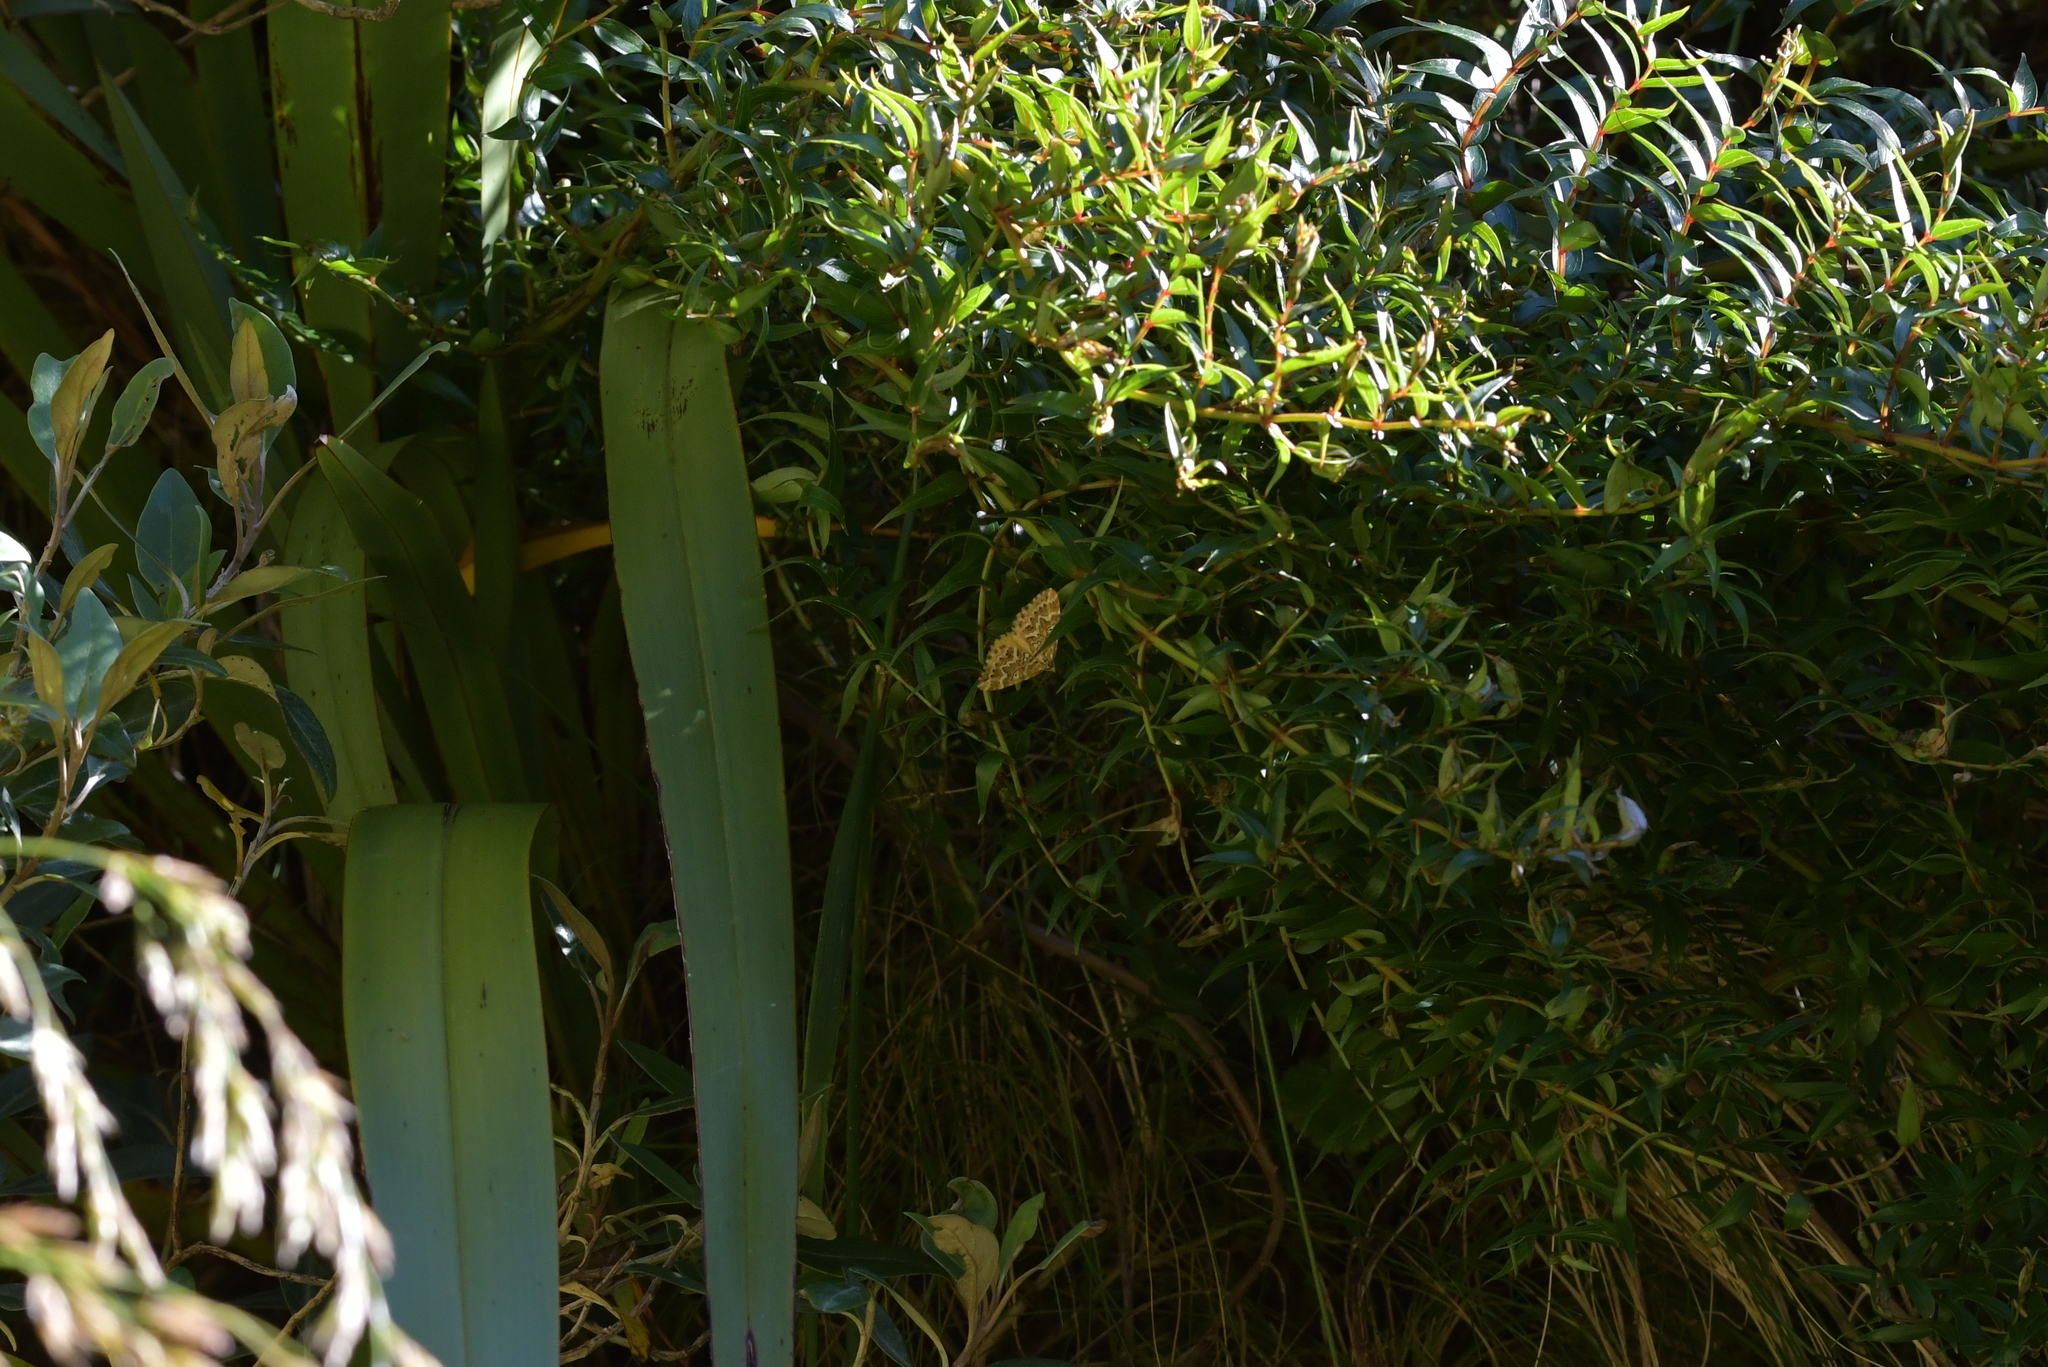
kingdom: Animalia
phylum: Arthropoda
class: Insecta
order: Lepidoptera
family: Geometridae
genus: Asaphodes
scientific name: Asaphodes clarata
